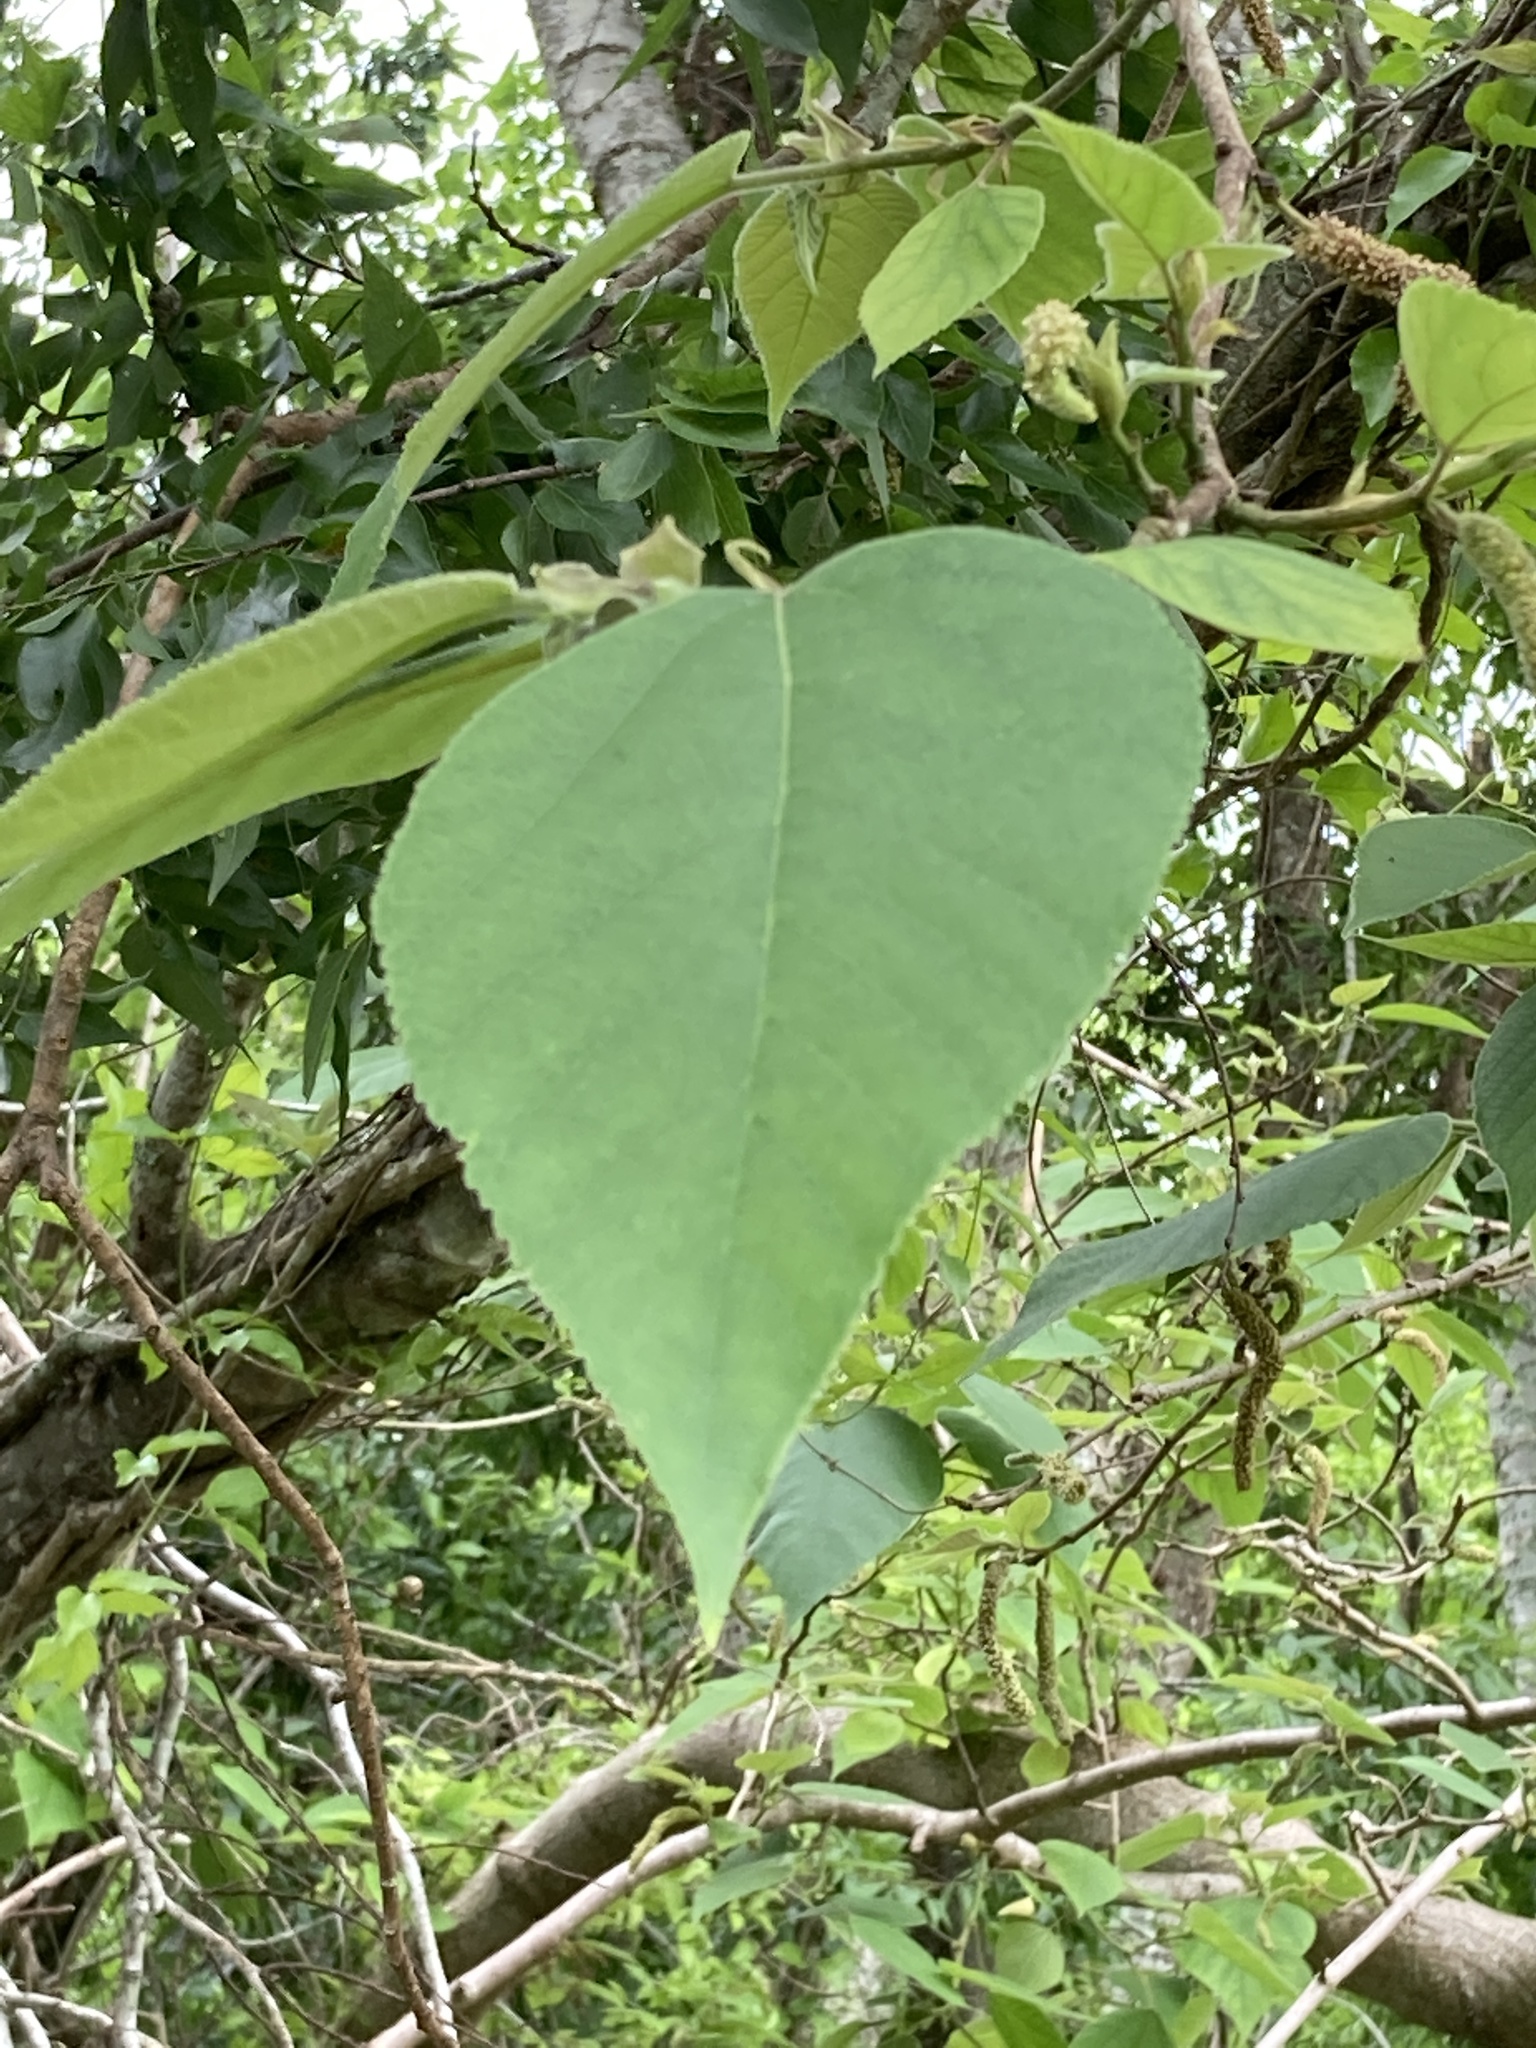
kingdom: Plantae
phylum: Tracheophyta
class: Magnoliopsida
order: Rosales
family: Moraceae
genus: Broussonetia
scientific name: Broussonetia papyrifera
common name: Paper mulberry
